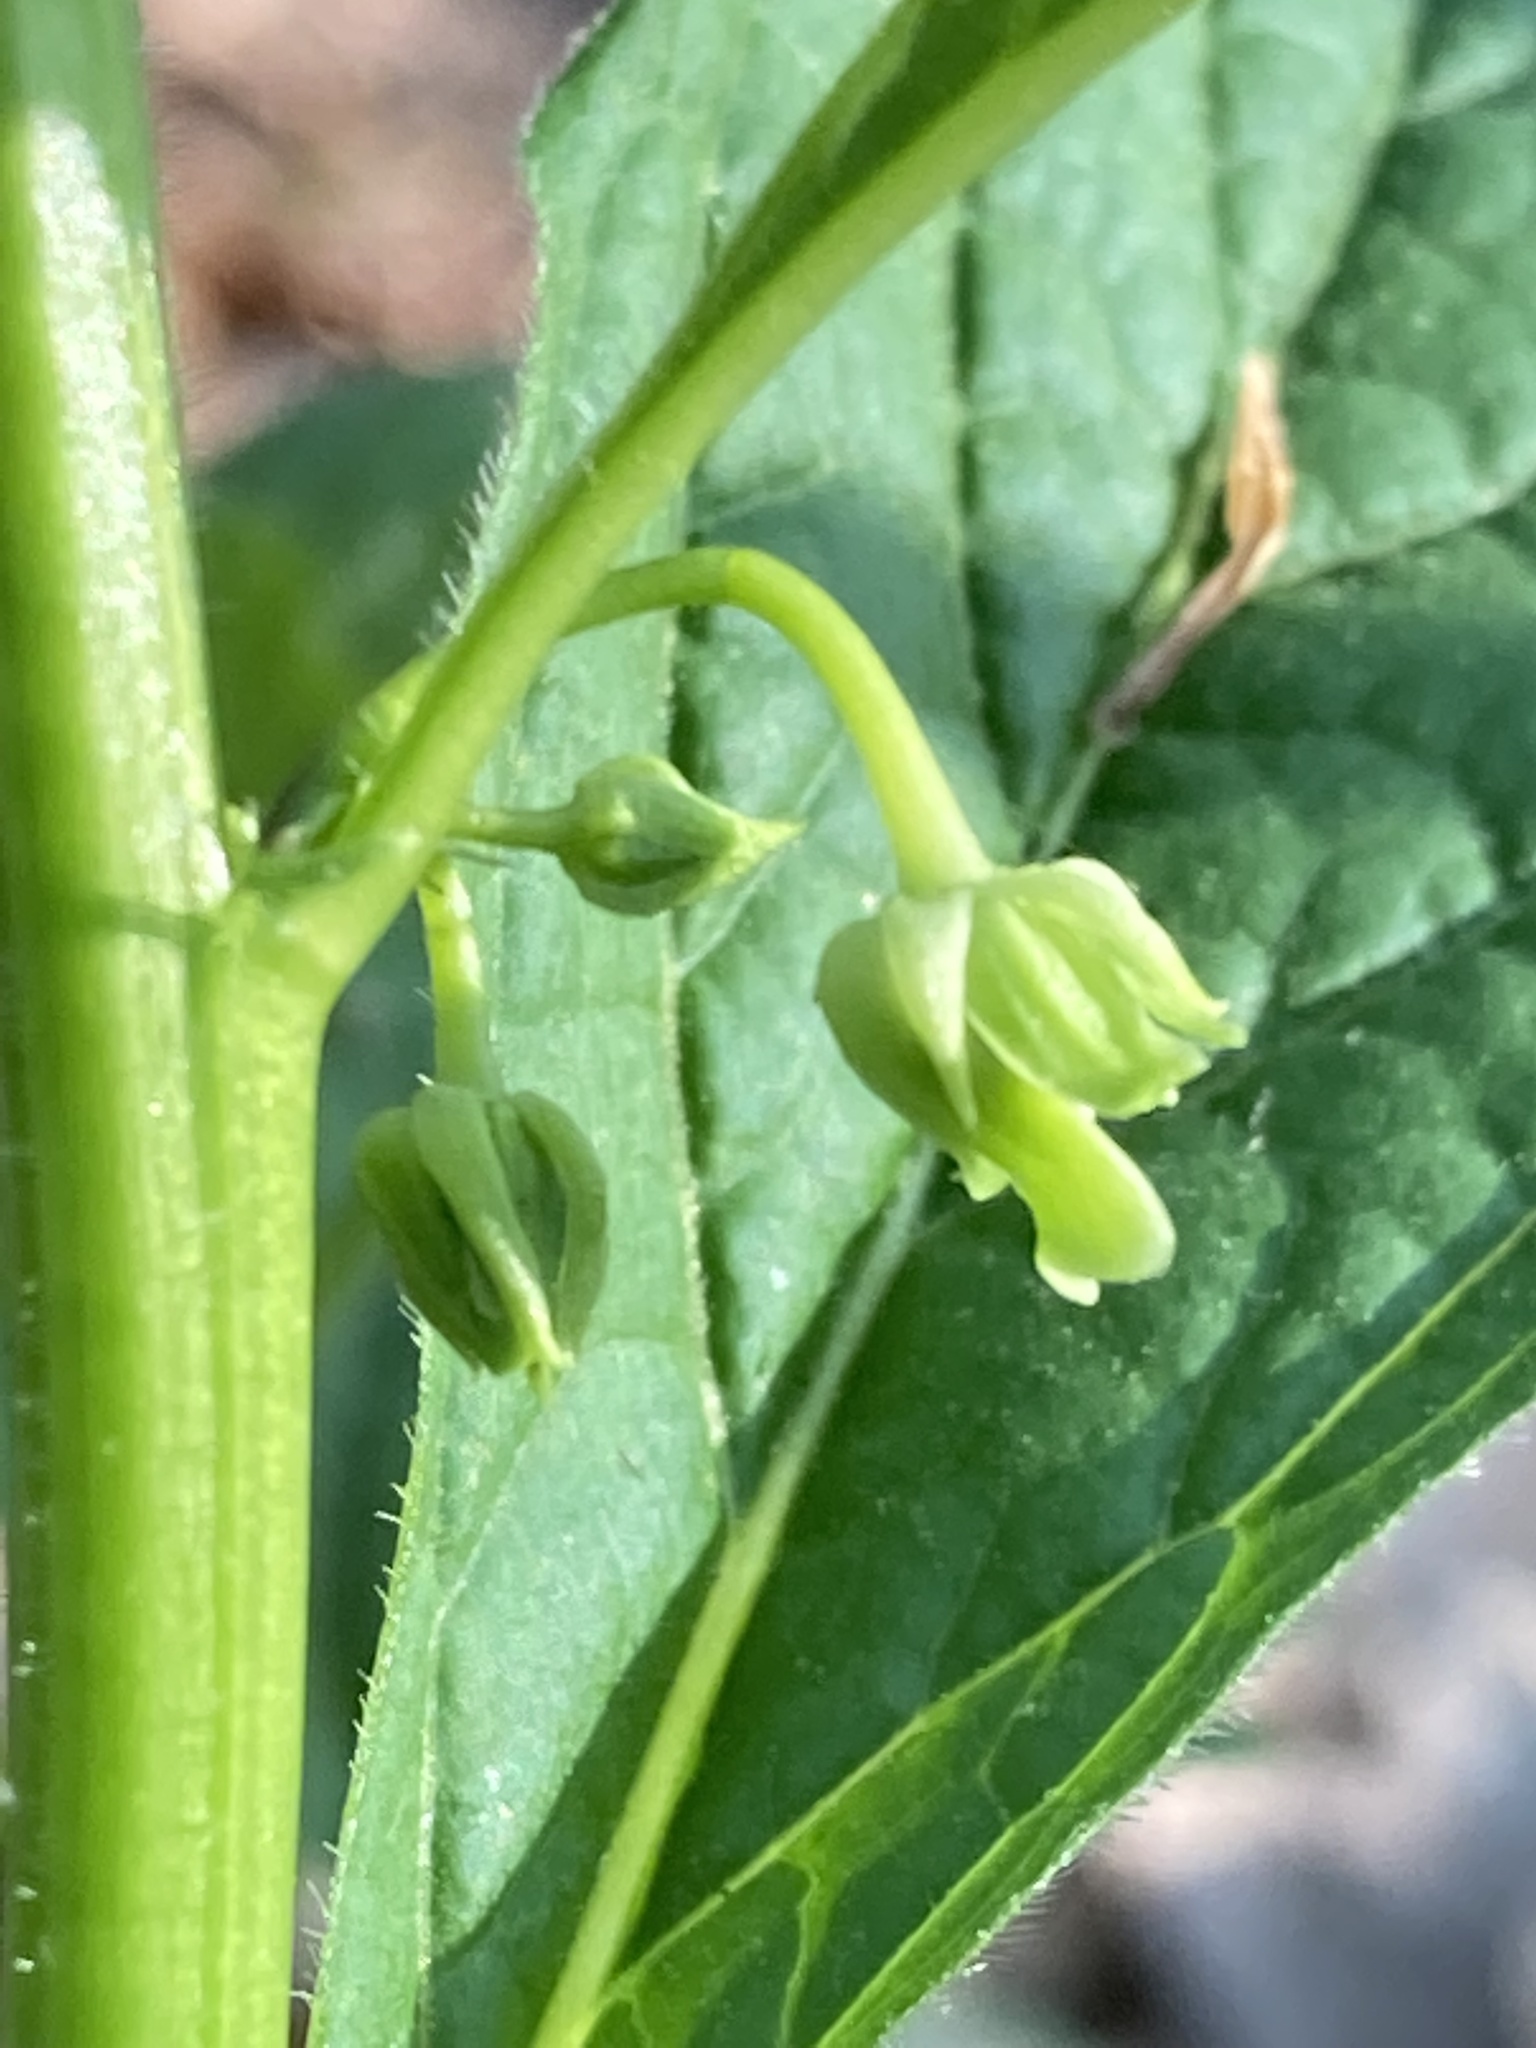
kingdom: Plantae
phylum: Tracheophyta
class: Magnoliopsida
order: Malpighiales
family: Violaceae
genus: Cubelium
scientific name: Cubelium concolor
